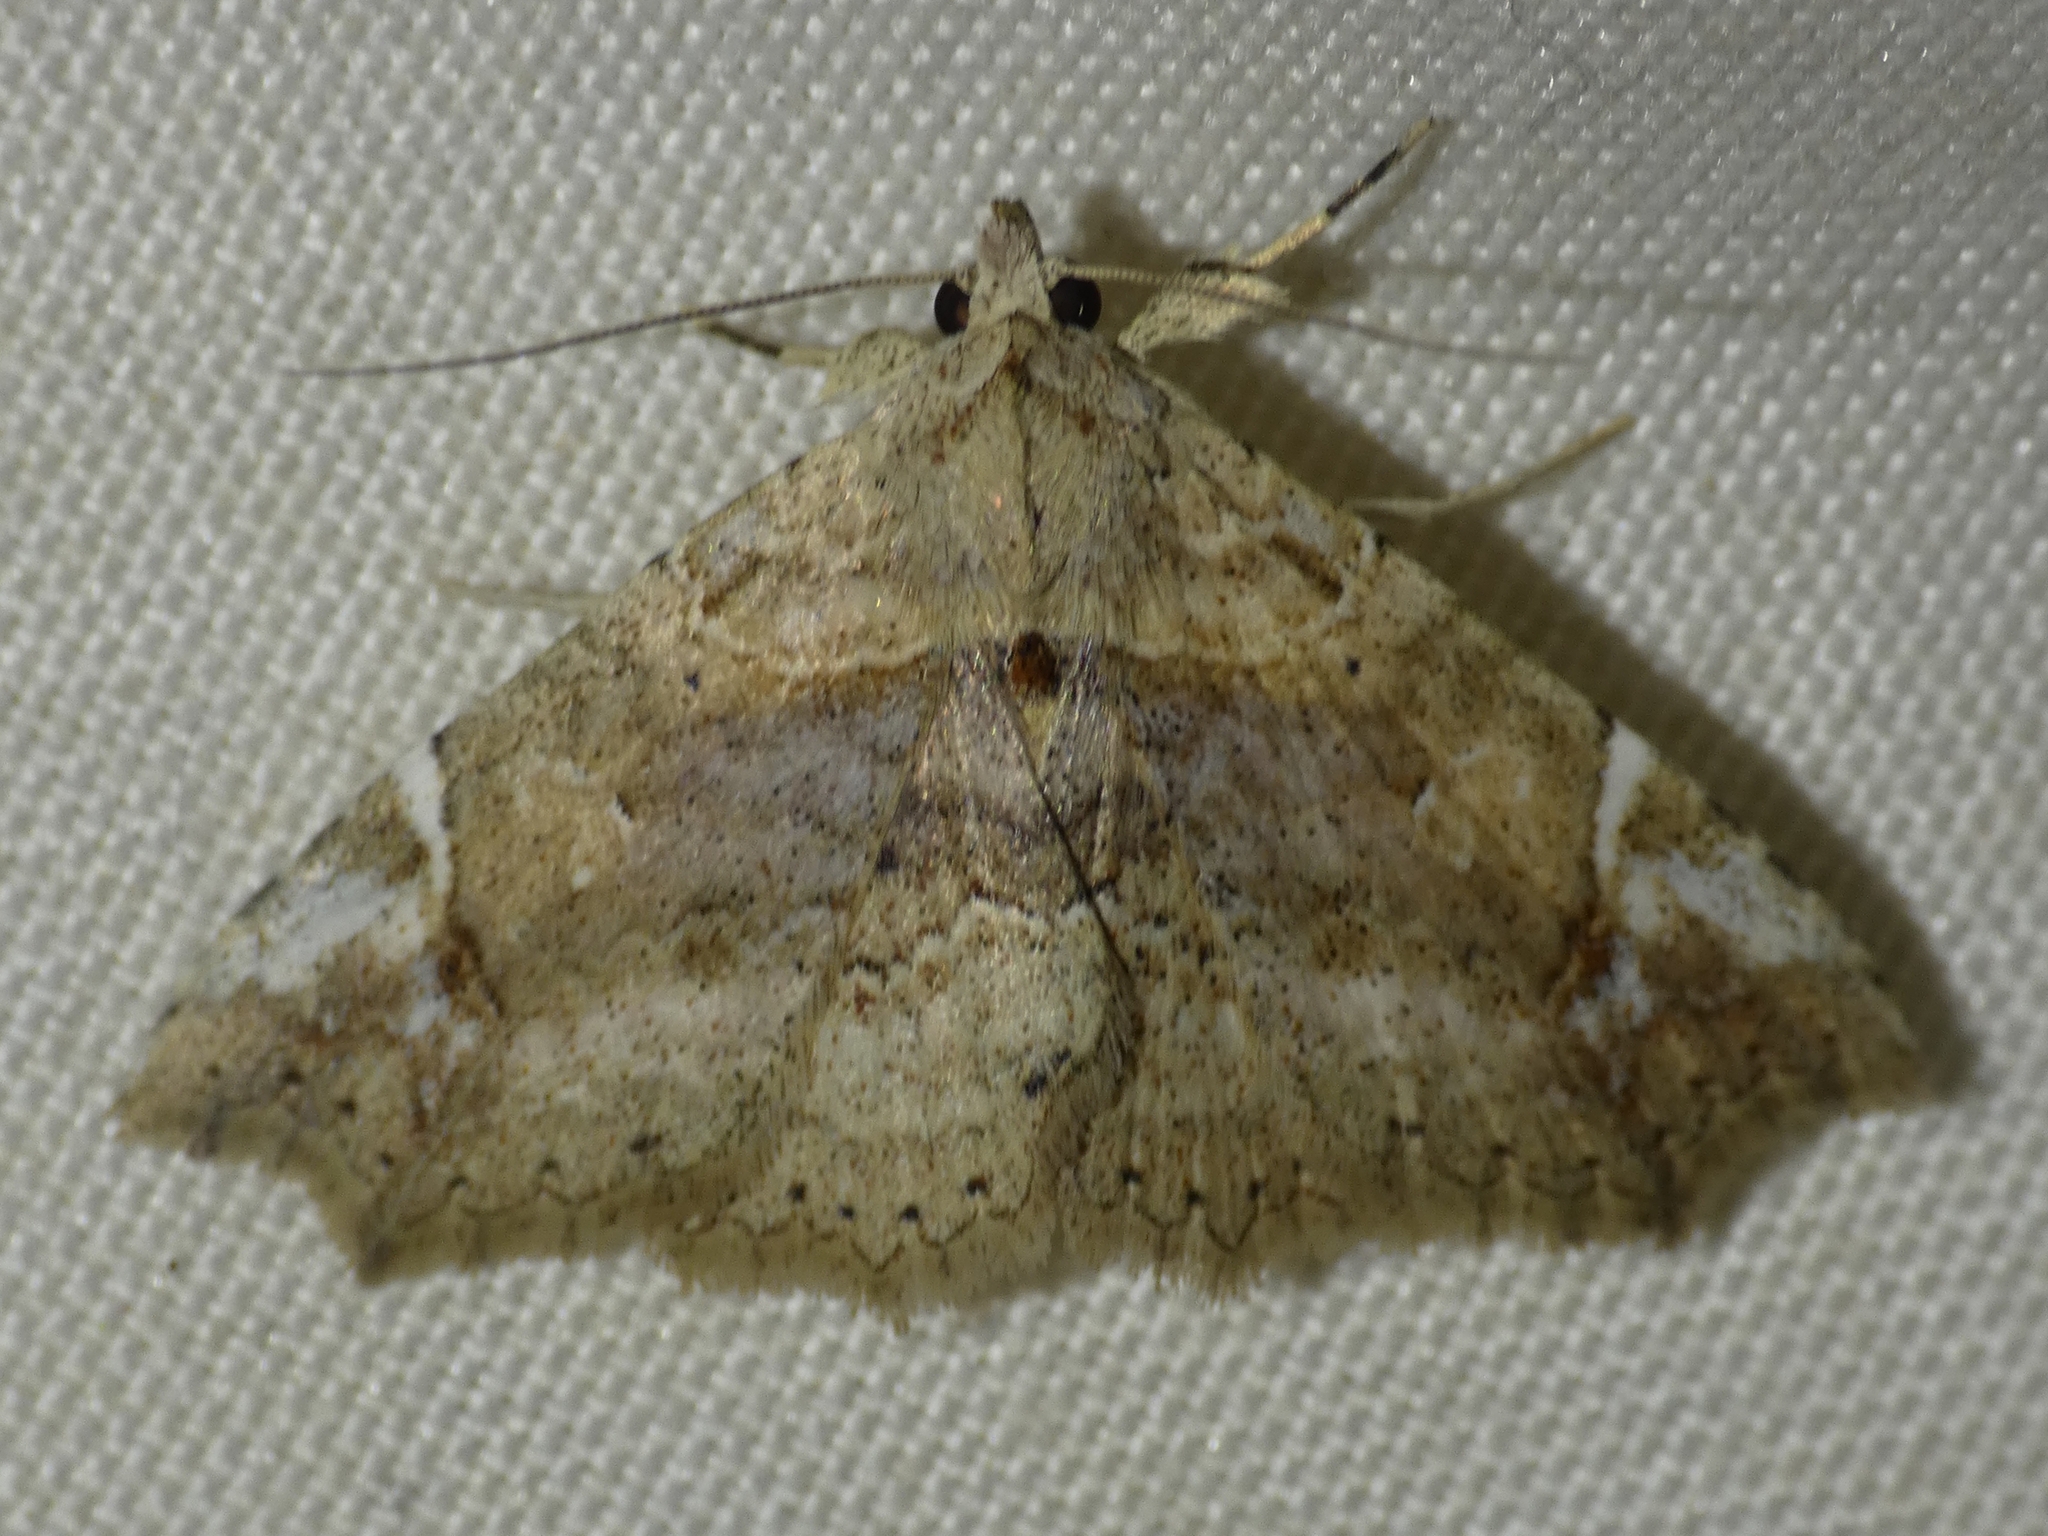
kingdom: Animalia
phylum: Arthropoda
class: Insecta
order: Lepidoptera
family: Erebidae
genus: Tamba
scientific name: Tamba elachista
